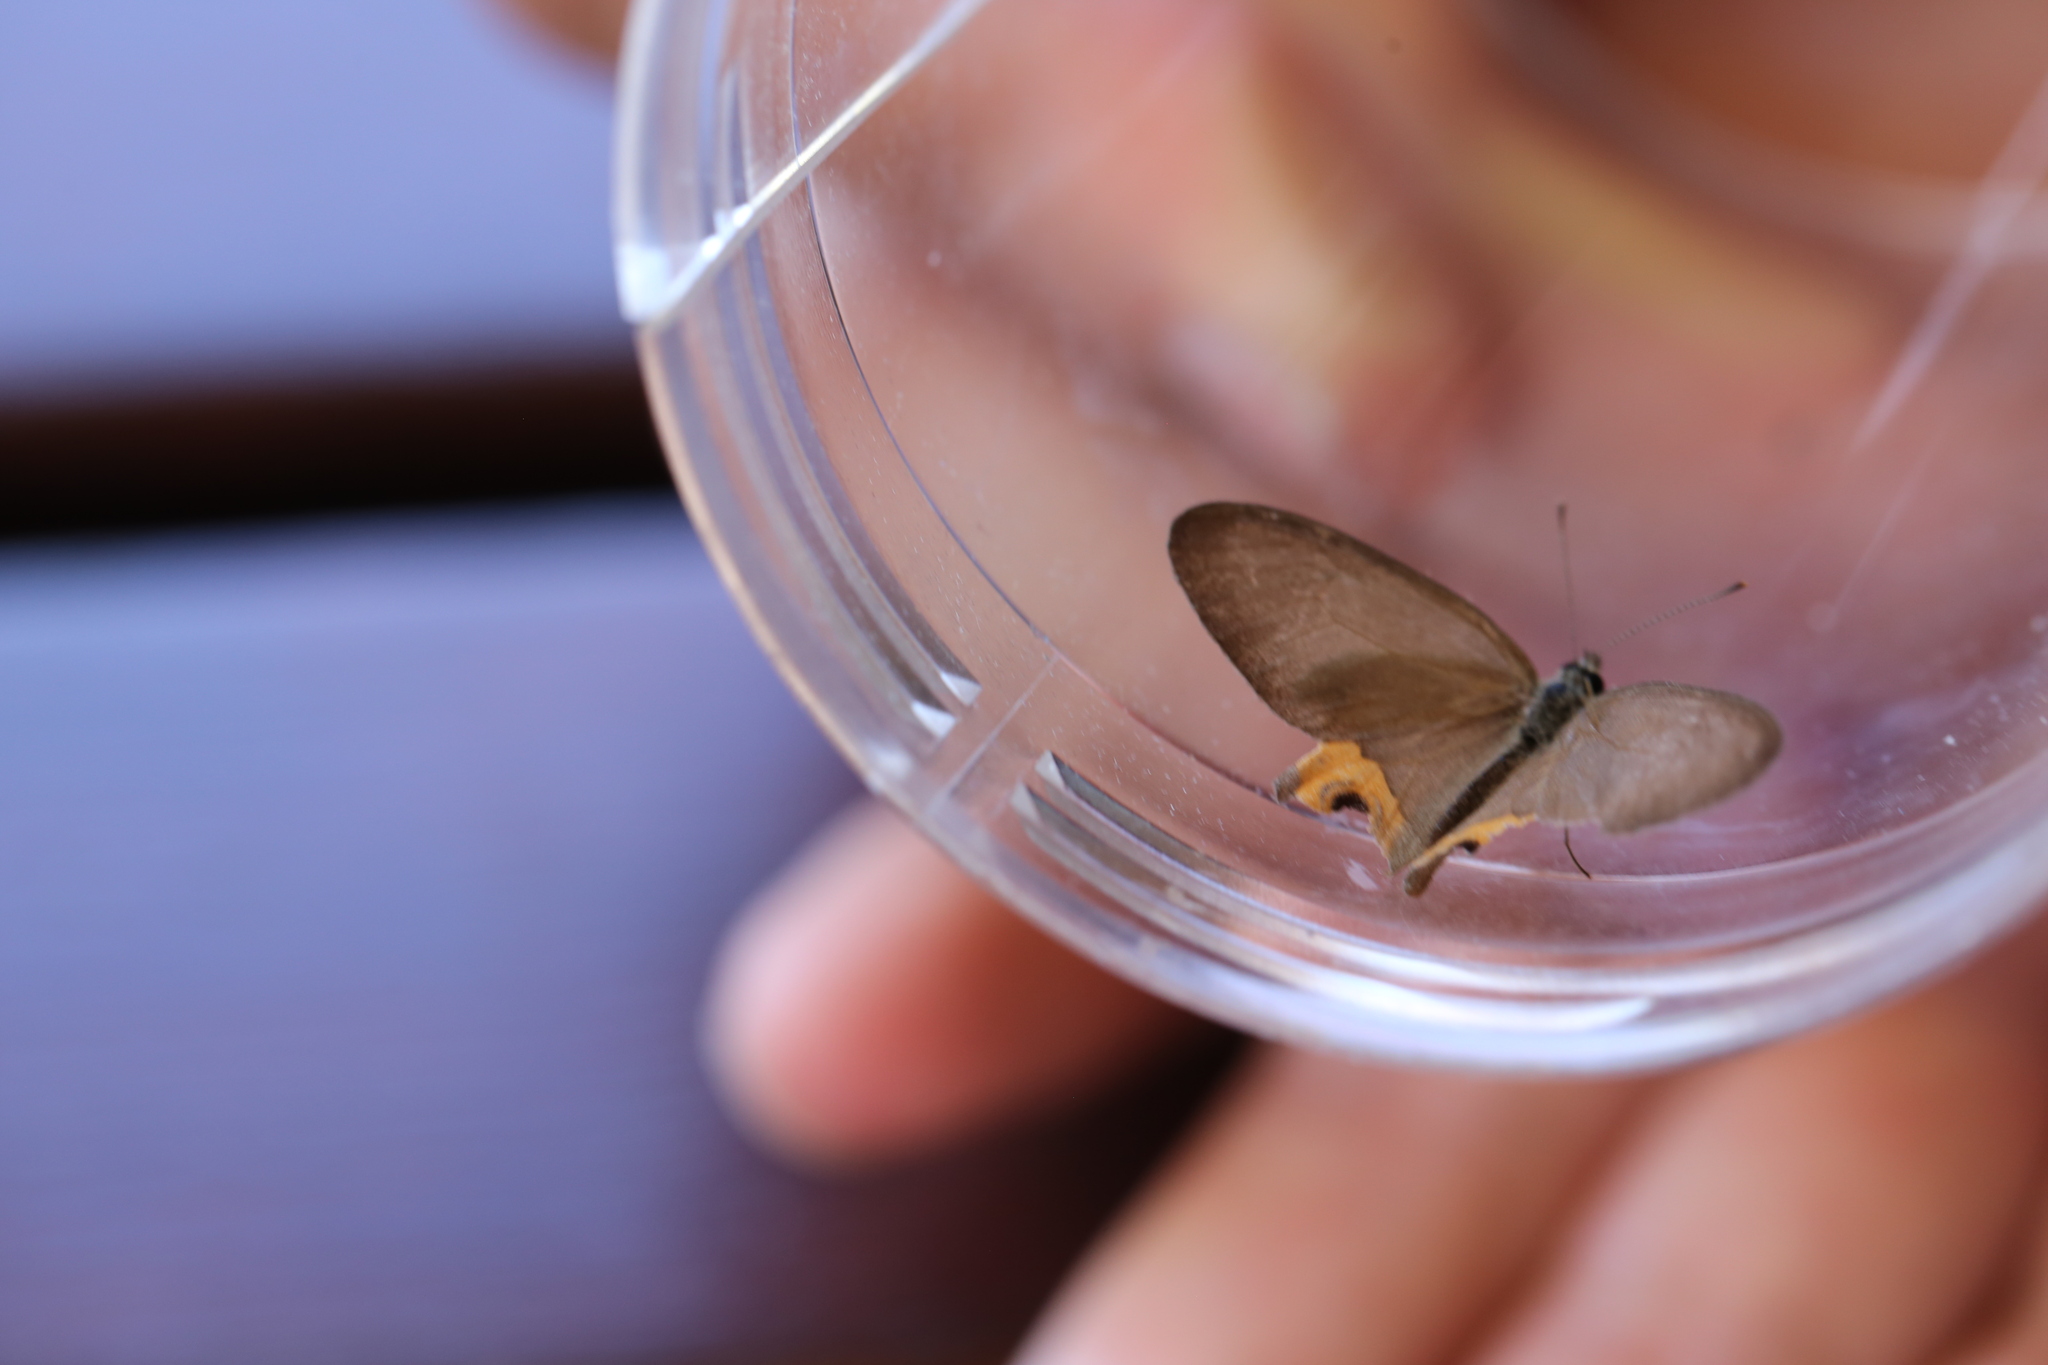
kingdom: Animalia
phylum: Arthropoda
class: Insecta
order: Lepidoptera
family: Nymphalidae
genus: Hypocysta
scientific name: Hypocysta metirius
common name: Brown ringlet
